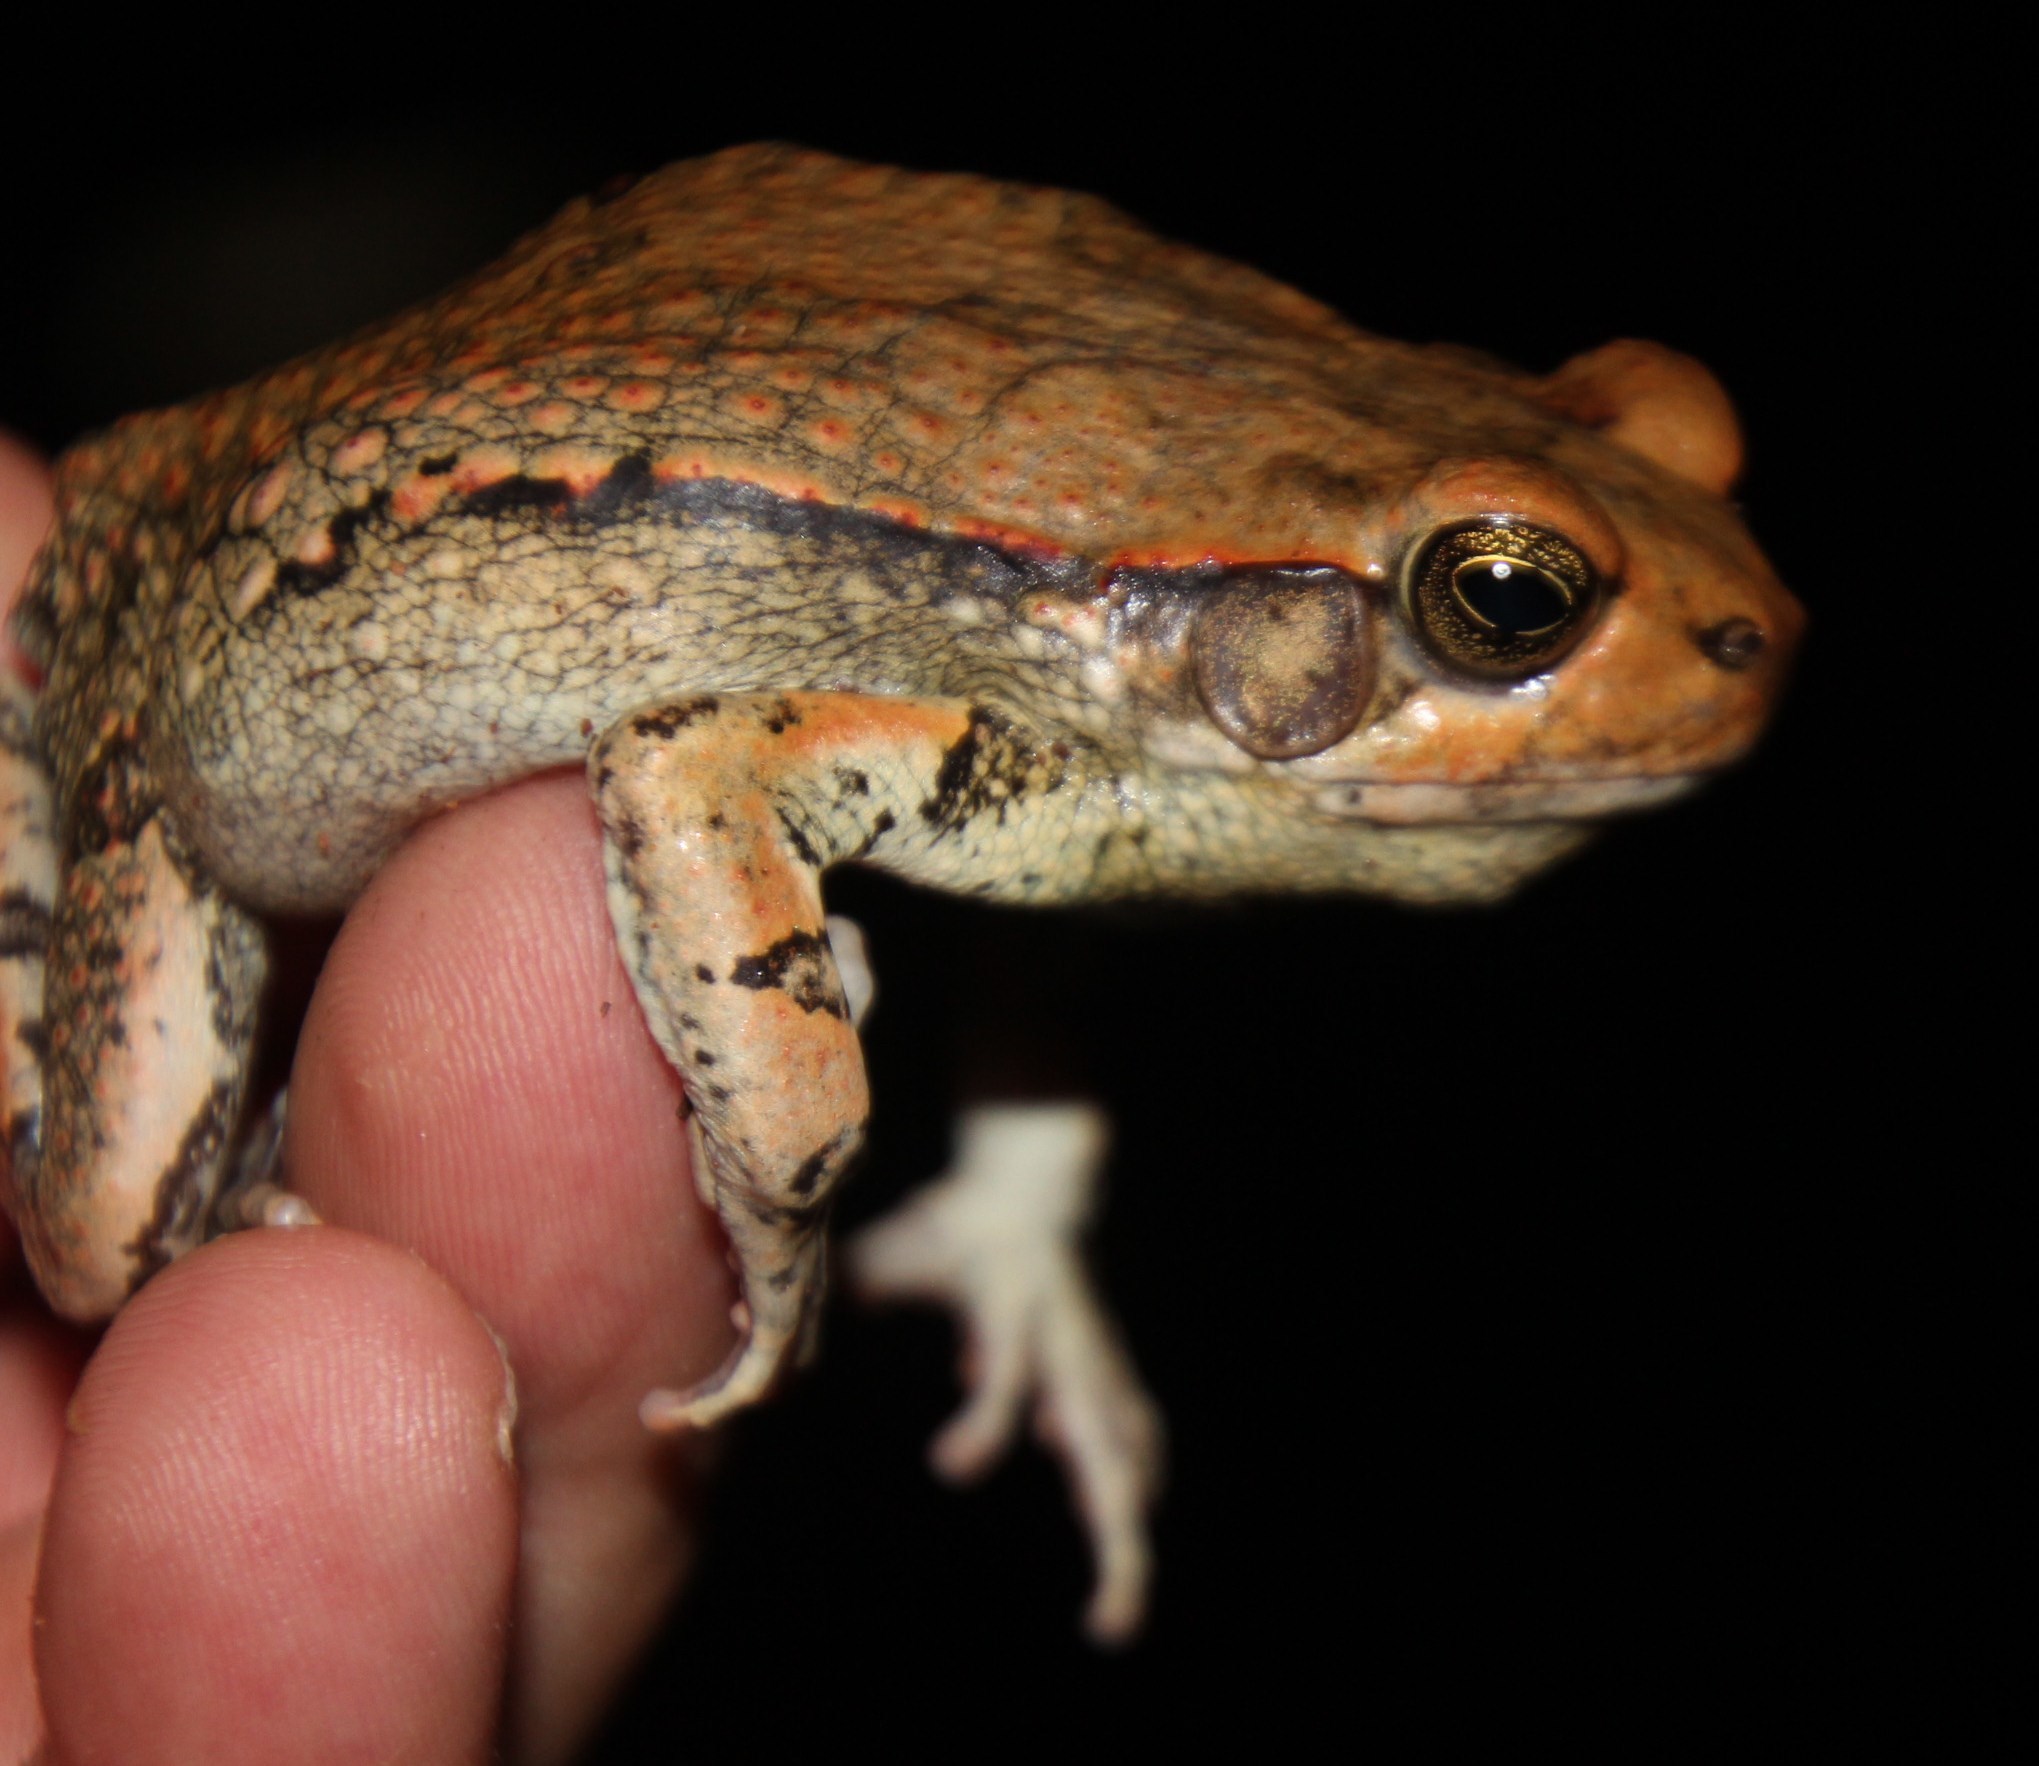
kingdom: Animalia
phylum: Chordata
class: Amphibia
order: Anura
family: Bufonidae
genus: Schismaderma
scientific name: Schismaderma carens
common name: African split-skin toad
